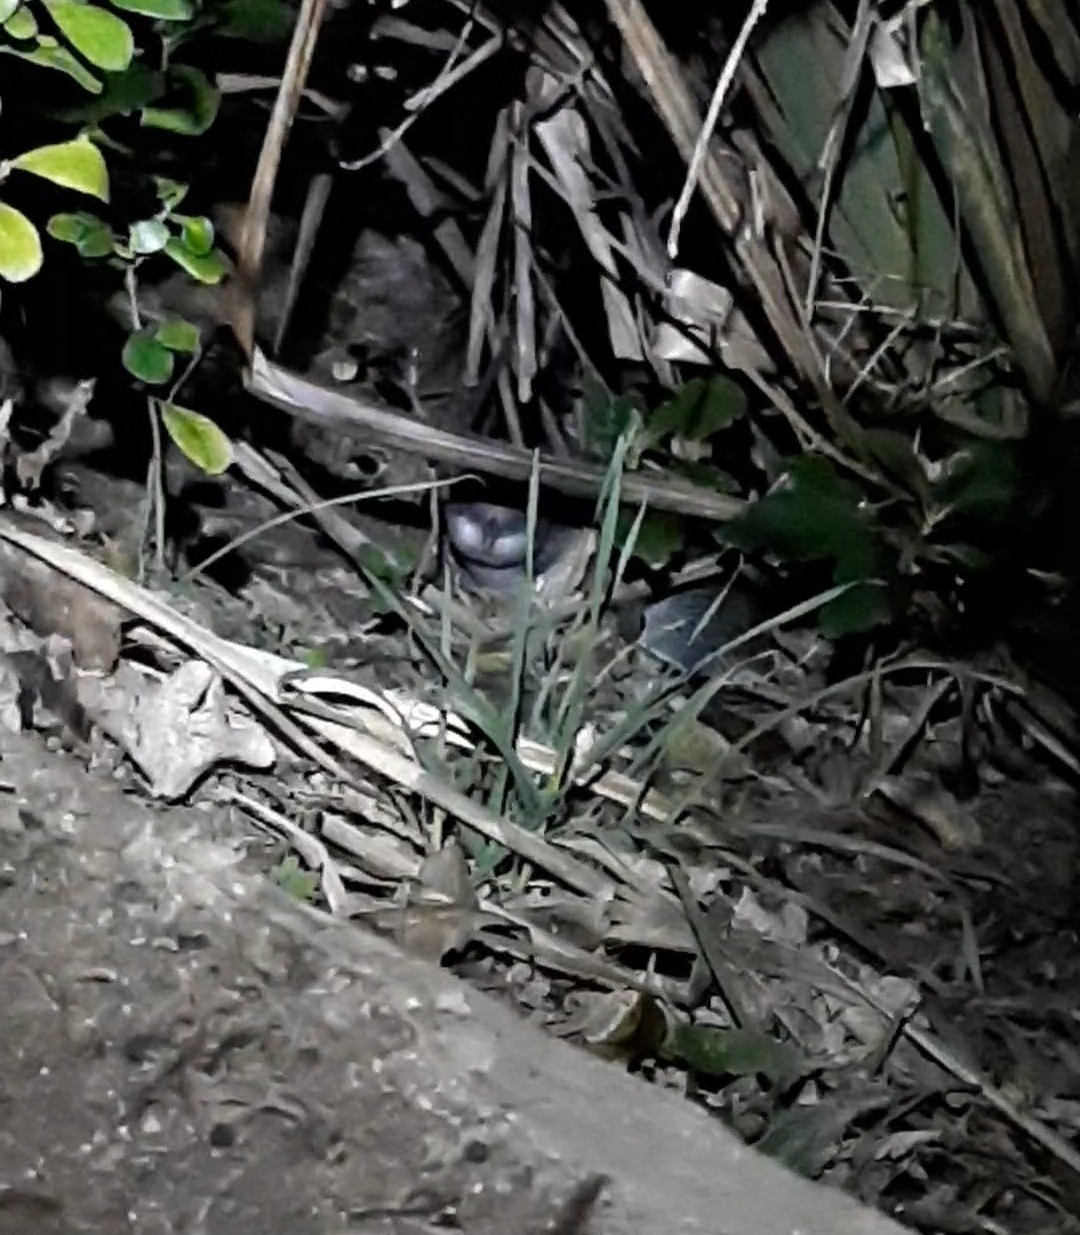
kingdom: Animalia
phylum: Chordata
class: Aves
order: Sphenisciformes
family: Spheniscidae
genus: Eudyptula
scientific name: Eudyptula minor
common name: Little penguin
